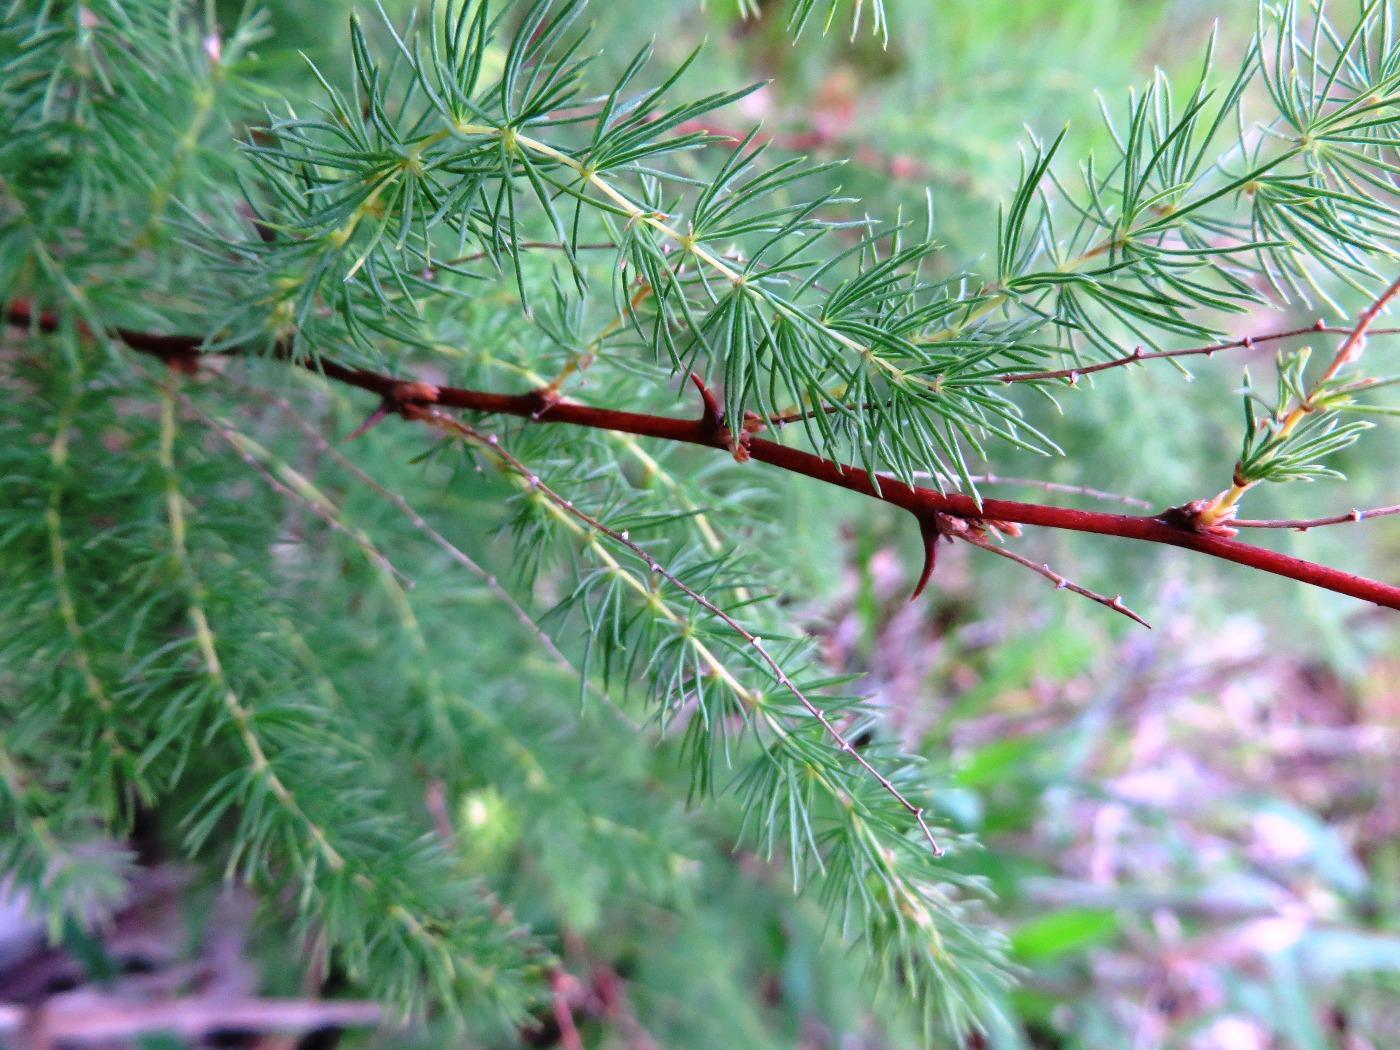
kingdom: Plantae
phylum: Tracheophyta
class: Liliopsida
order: Asparagales
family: Asparagaceae
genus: Asparagus
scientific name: Asparagus rubicundus
